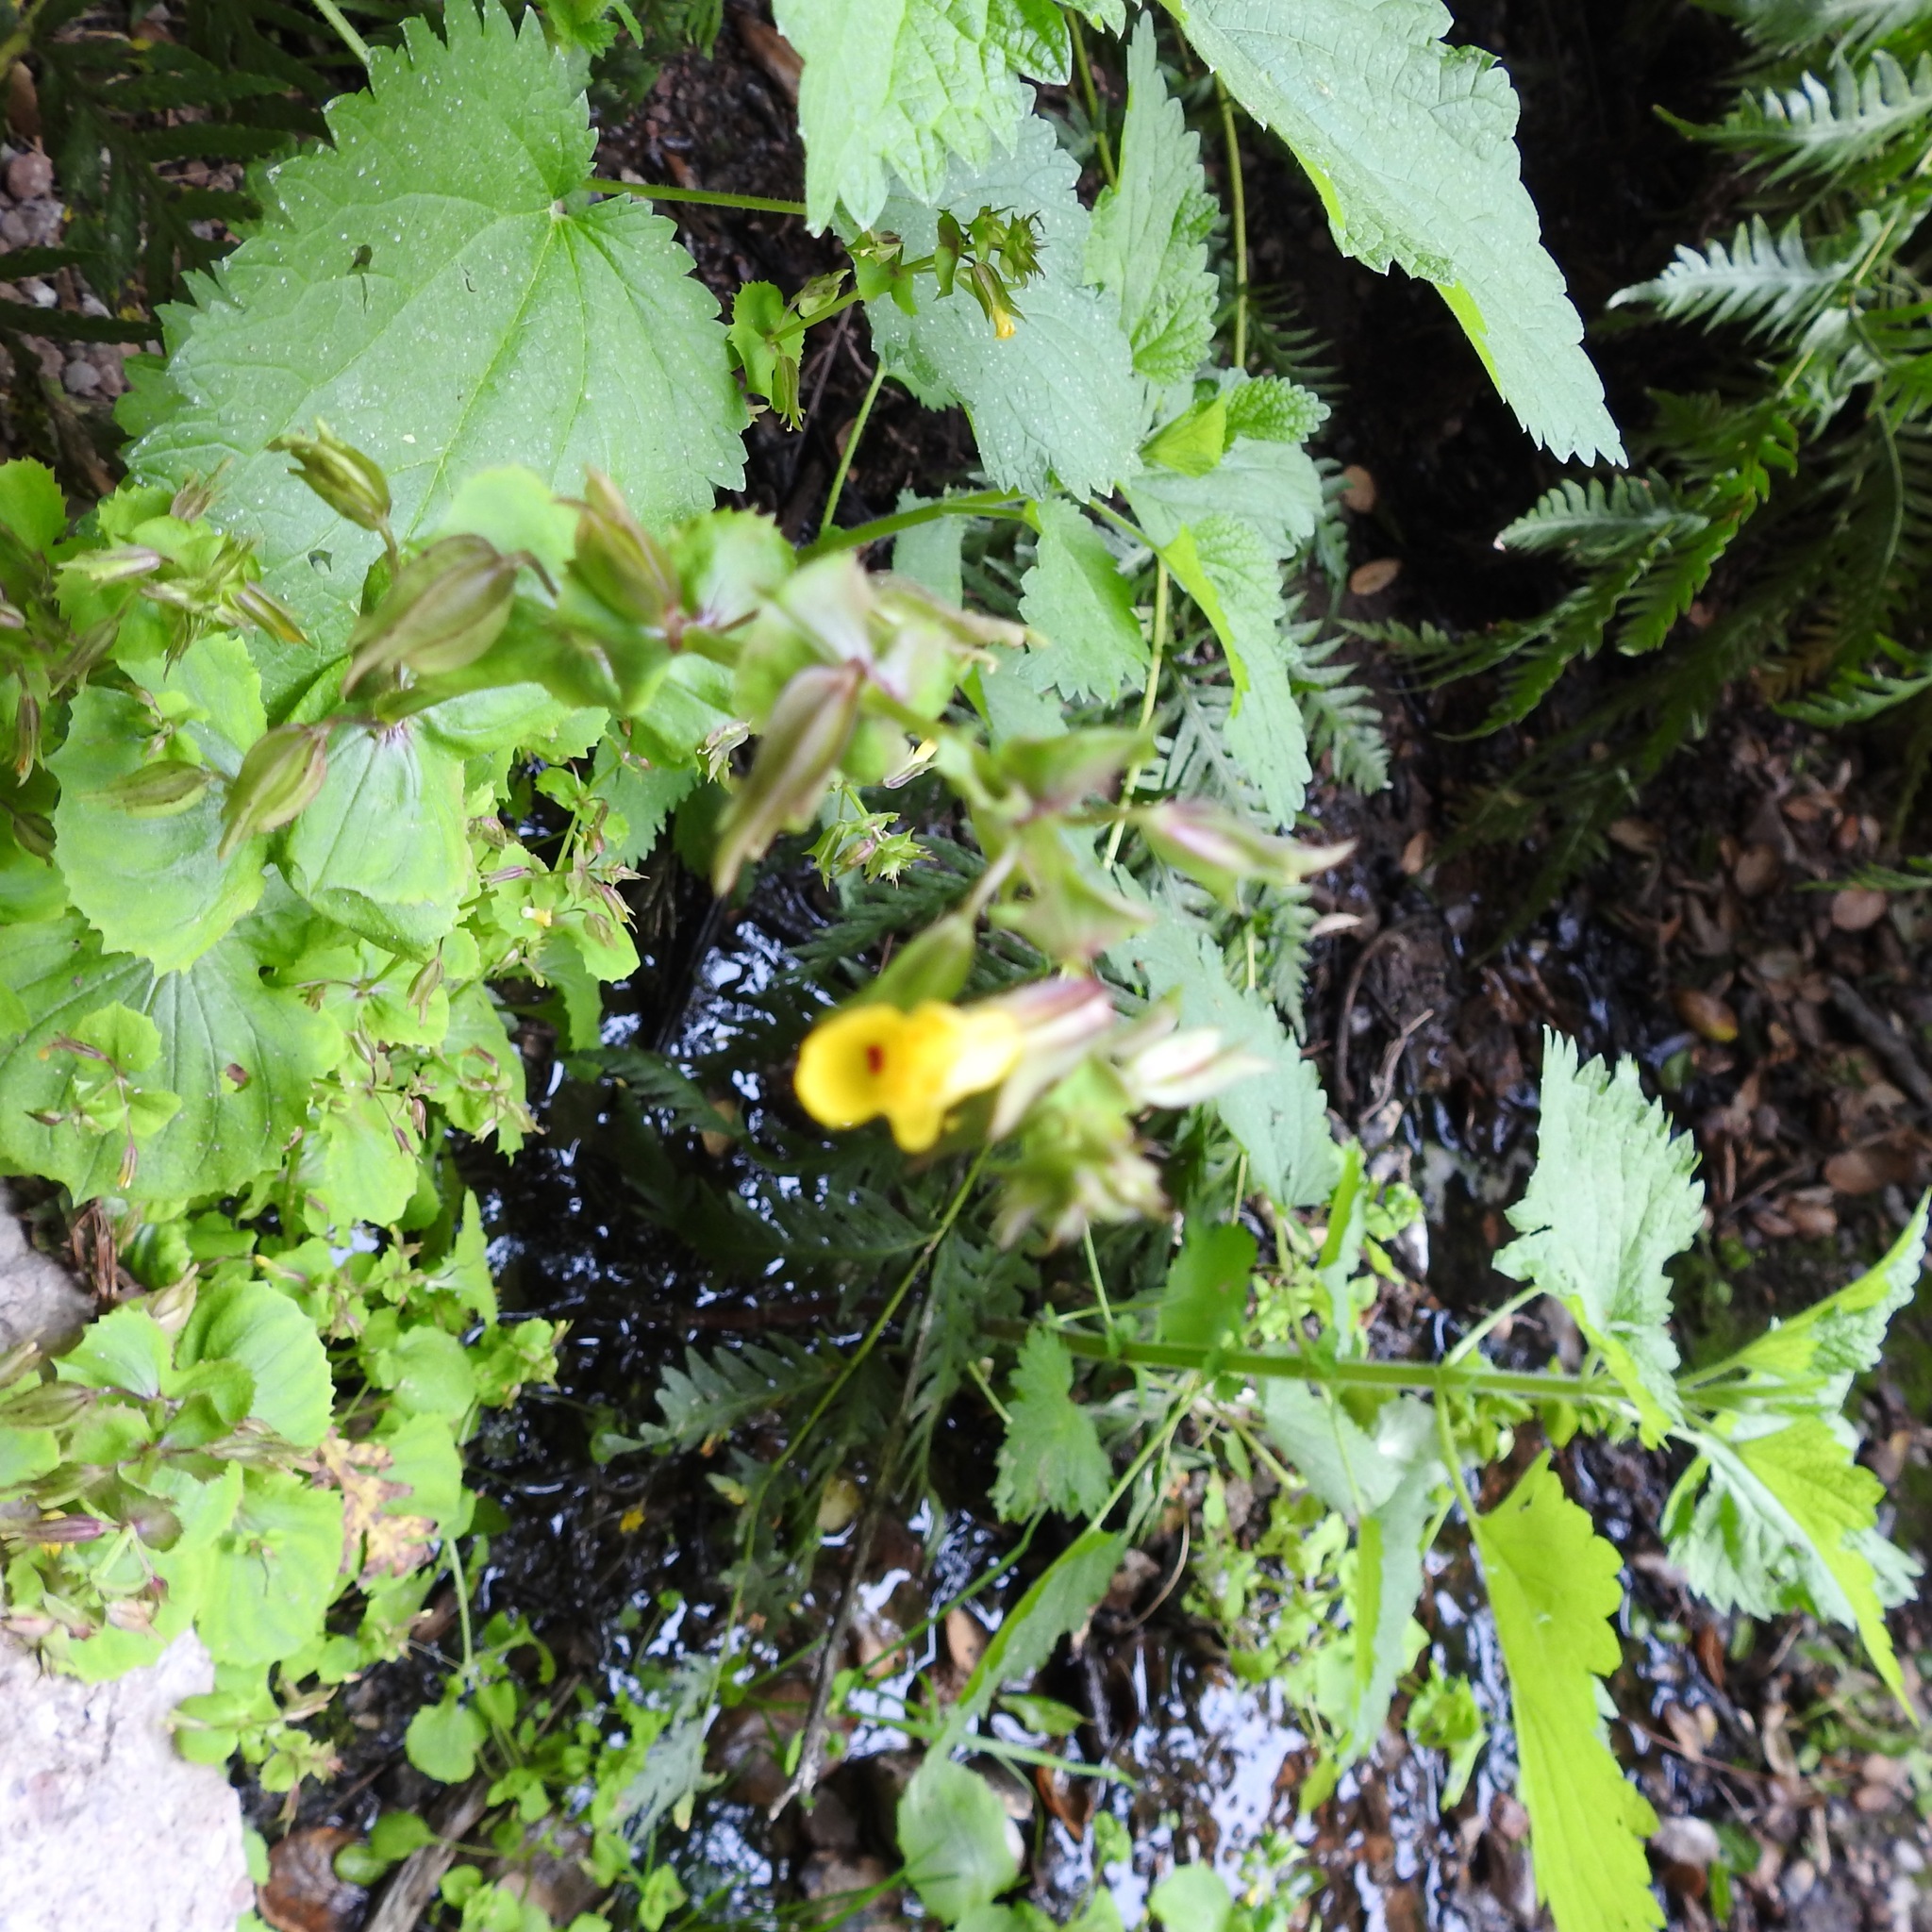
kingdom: Plantae
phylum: Tracheophyta
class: Magnoliopsida
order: Lamiales
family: Phrymaceae
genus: Erythranthe
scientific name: Erythranthe nasuta
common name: Sooke monkeyflower
